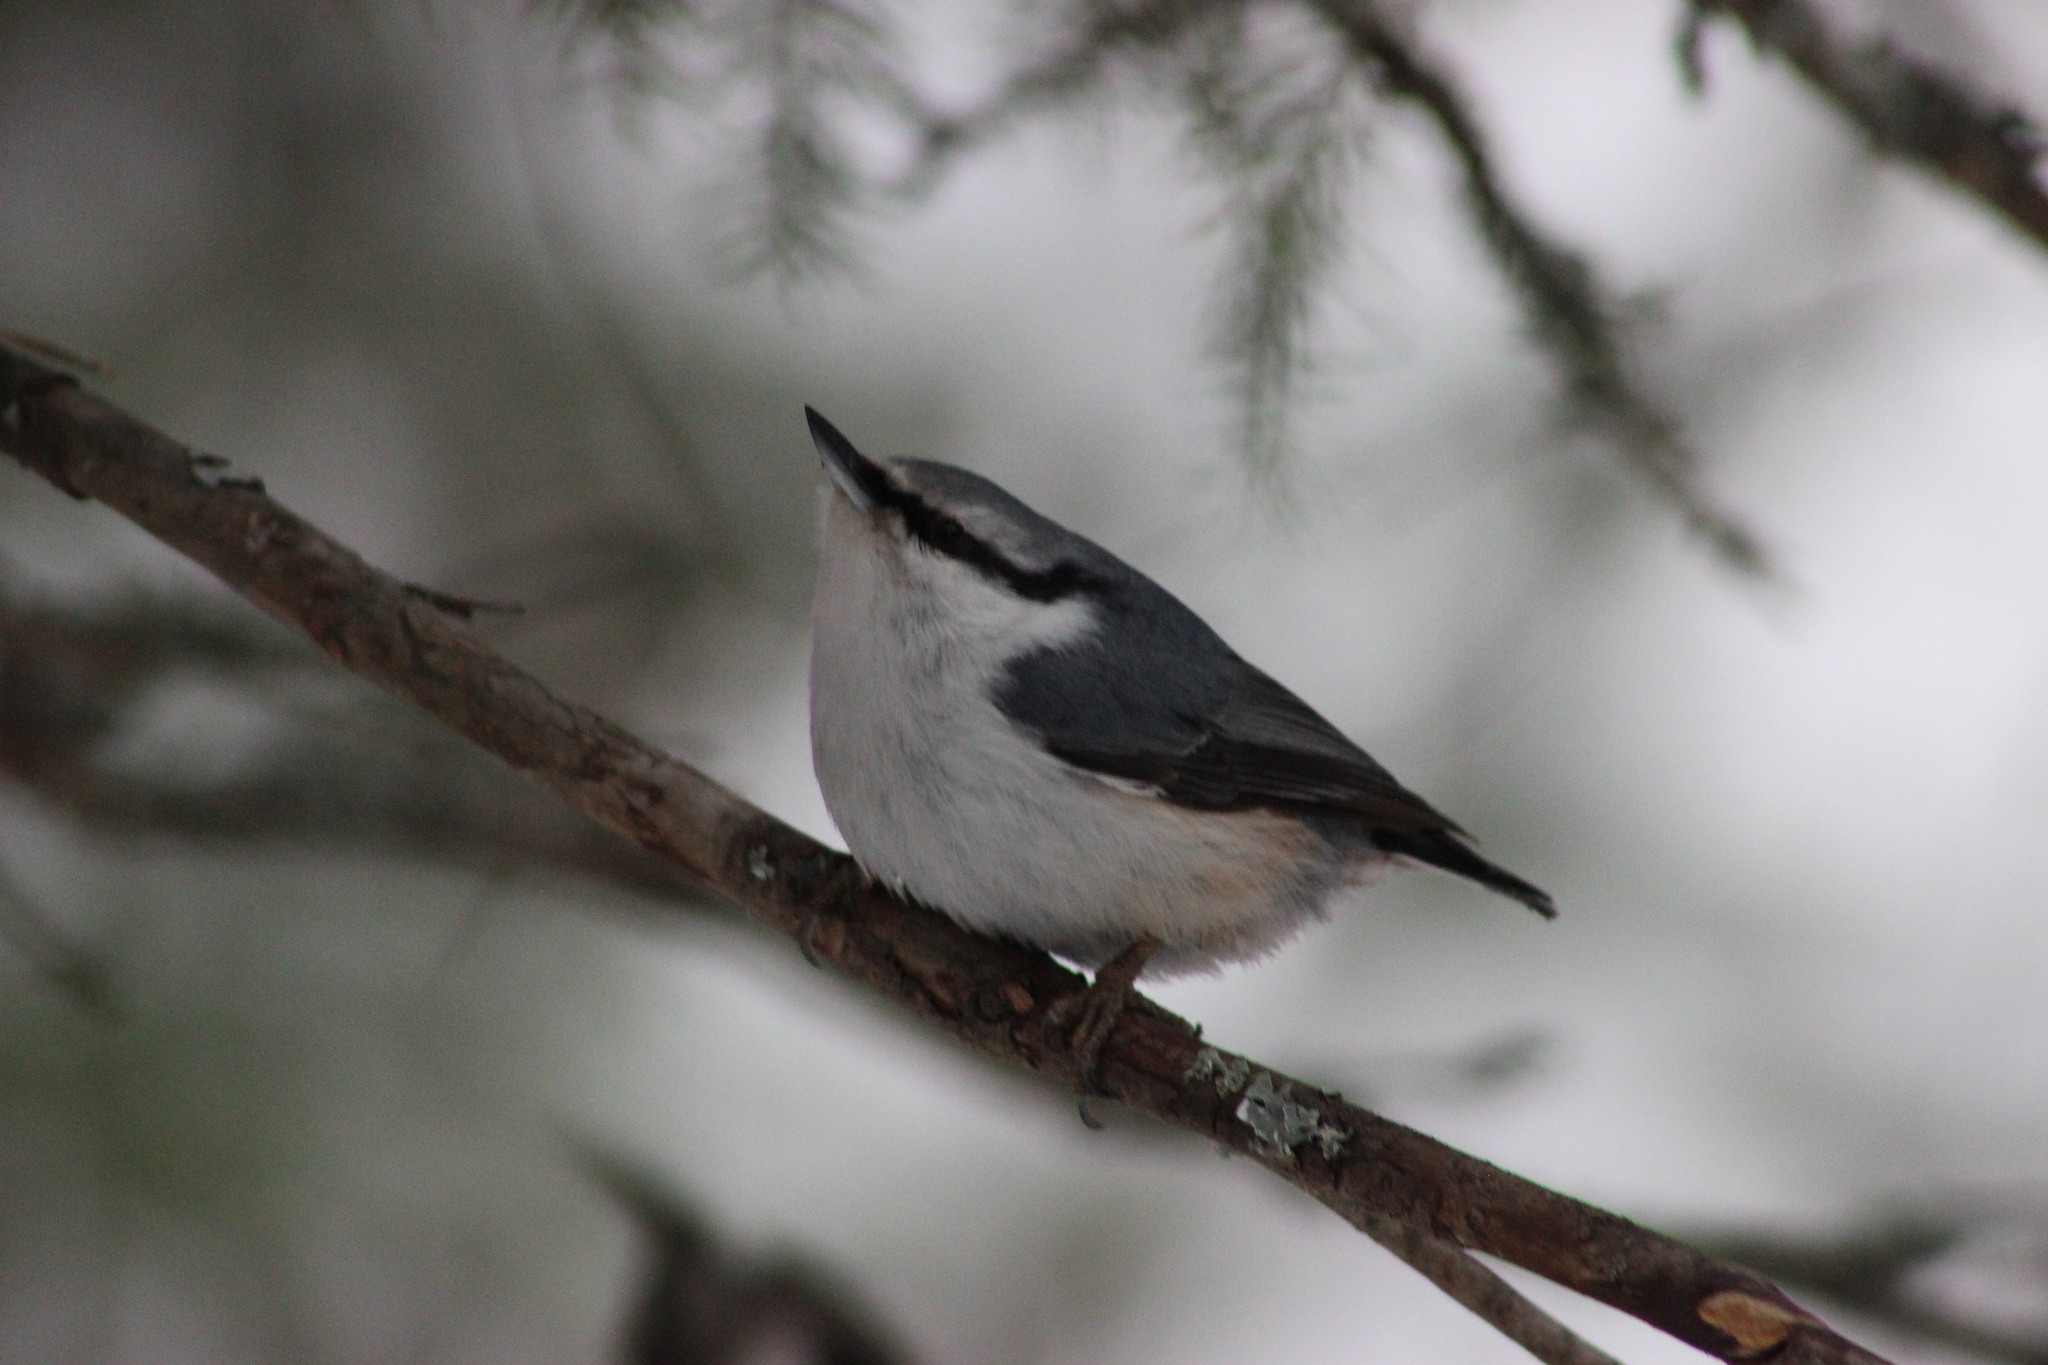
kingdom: Animalia
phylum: Chordata
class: Aves
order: Passeriformes
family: Sittidae
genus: Sitta
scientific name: Sitta europaea
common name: Eurasian nuthatch
